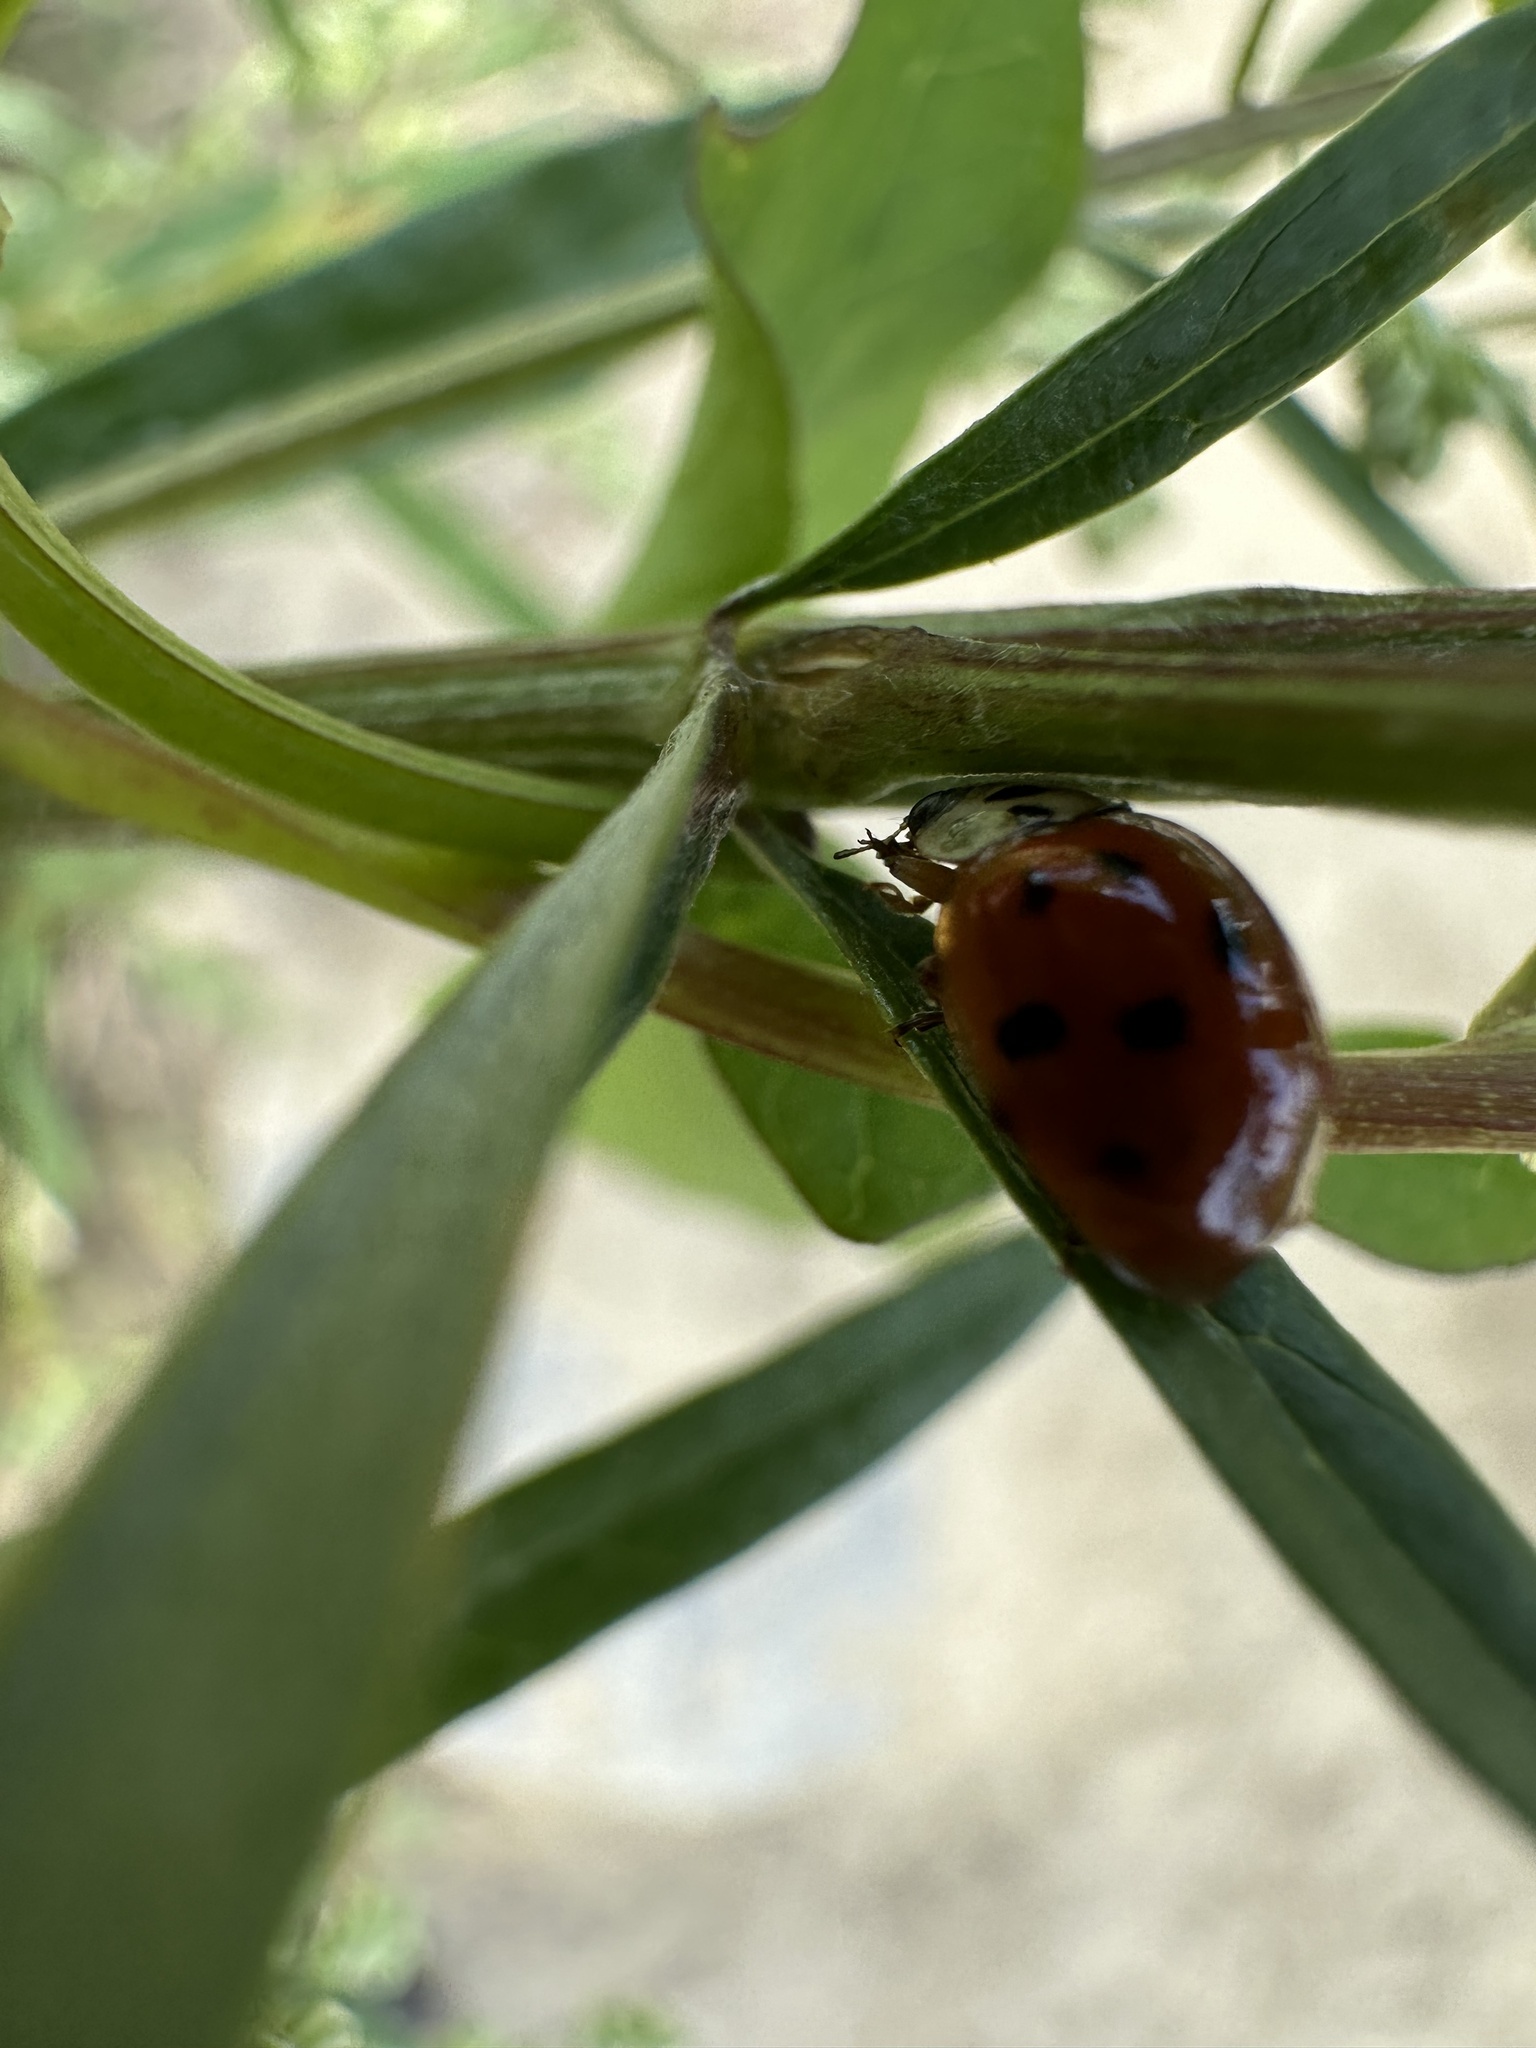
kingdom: Animalia
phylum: Arthropoda
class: Insecta
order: Coleoptera
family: Coccinellidae
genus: Harmonia
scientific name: Harmonia axyridis
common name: Harlequin ladybird
